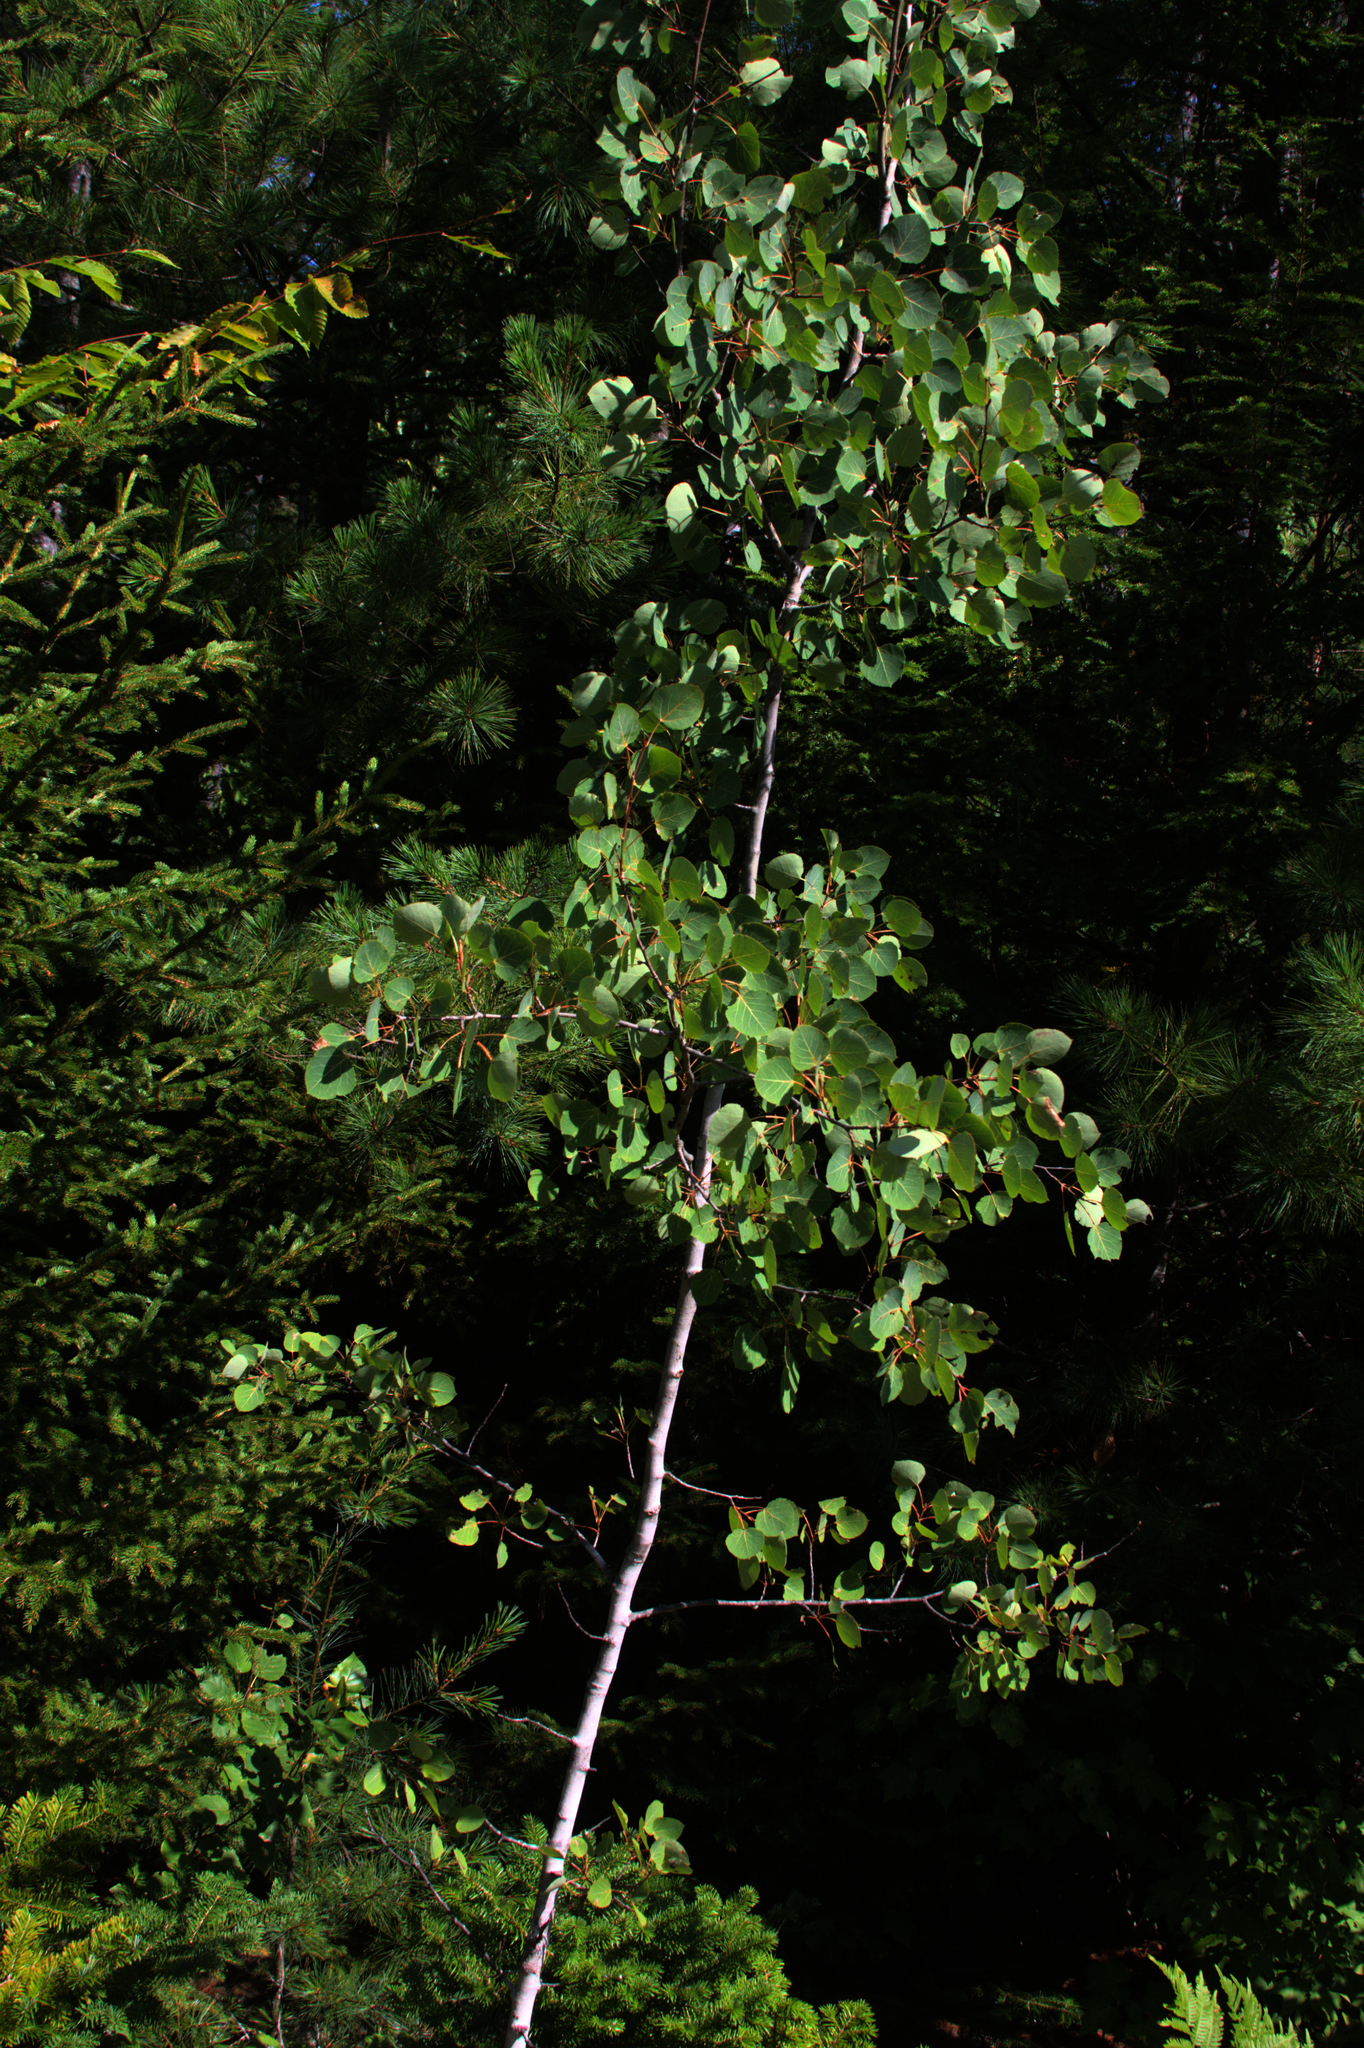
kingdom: Plantae
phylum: Tracheophyta
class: Magnoliopsida
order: Malpighiales
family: Salicaceae
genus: Populus
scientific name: Populus tremuloides
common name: Quaking aspen
